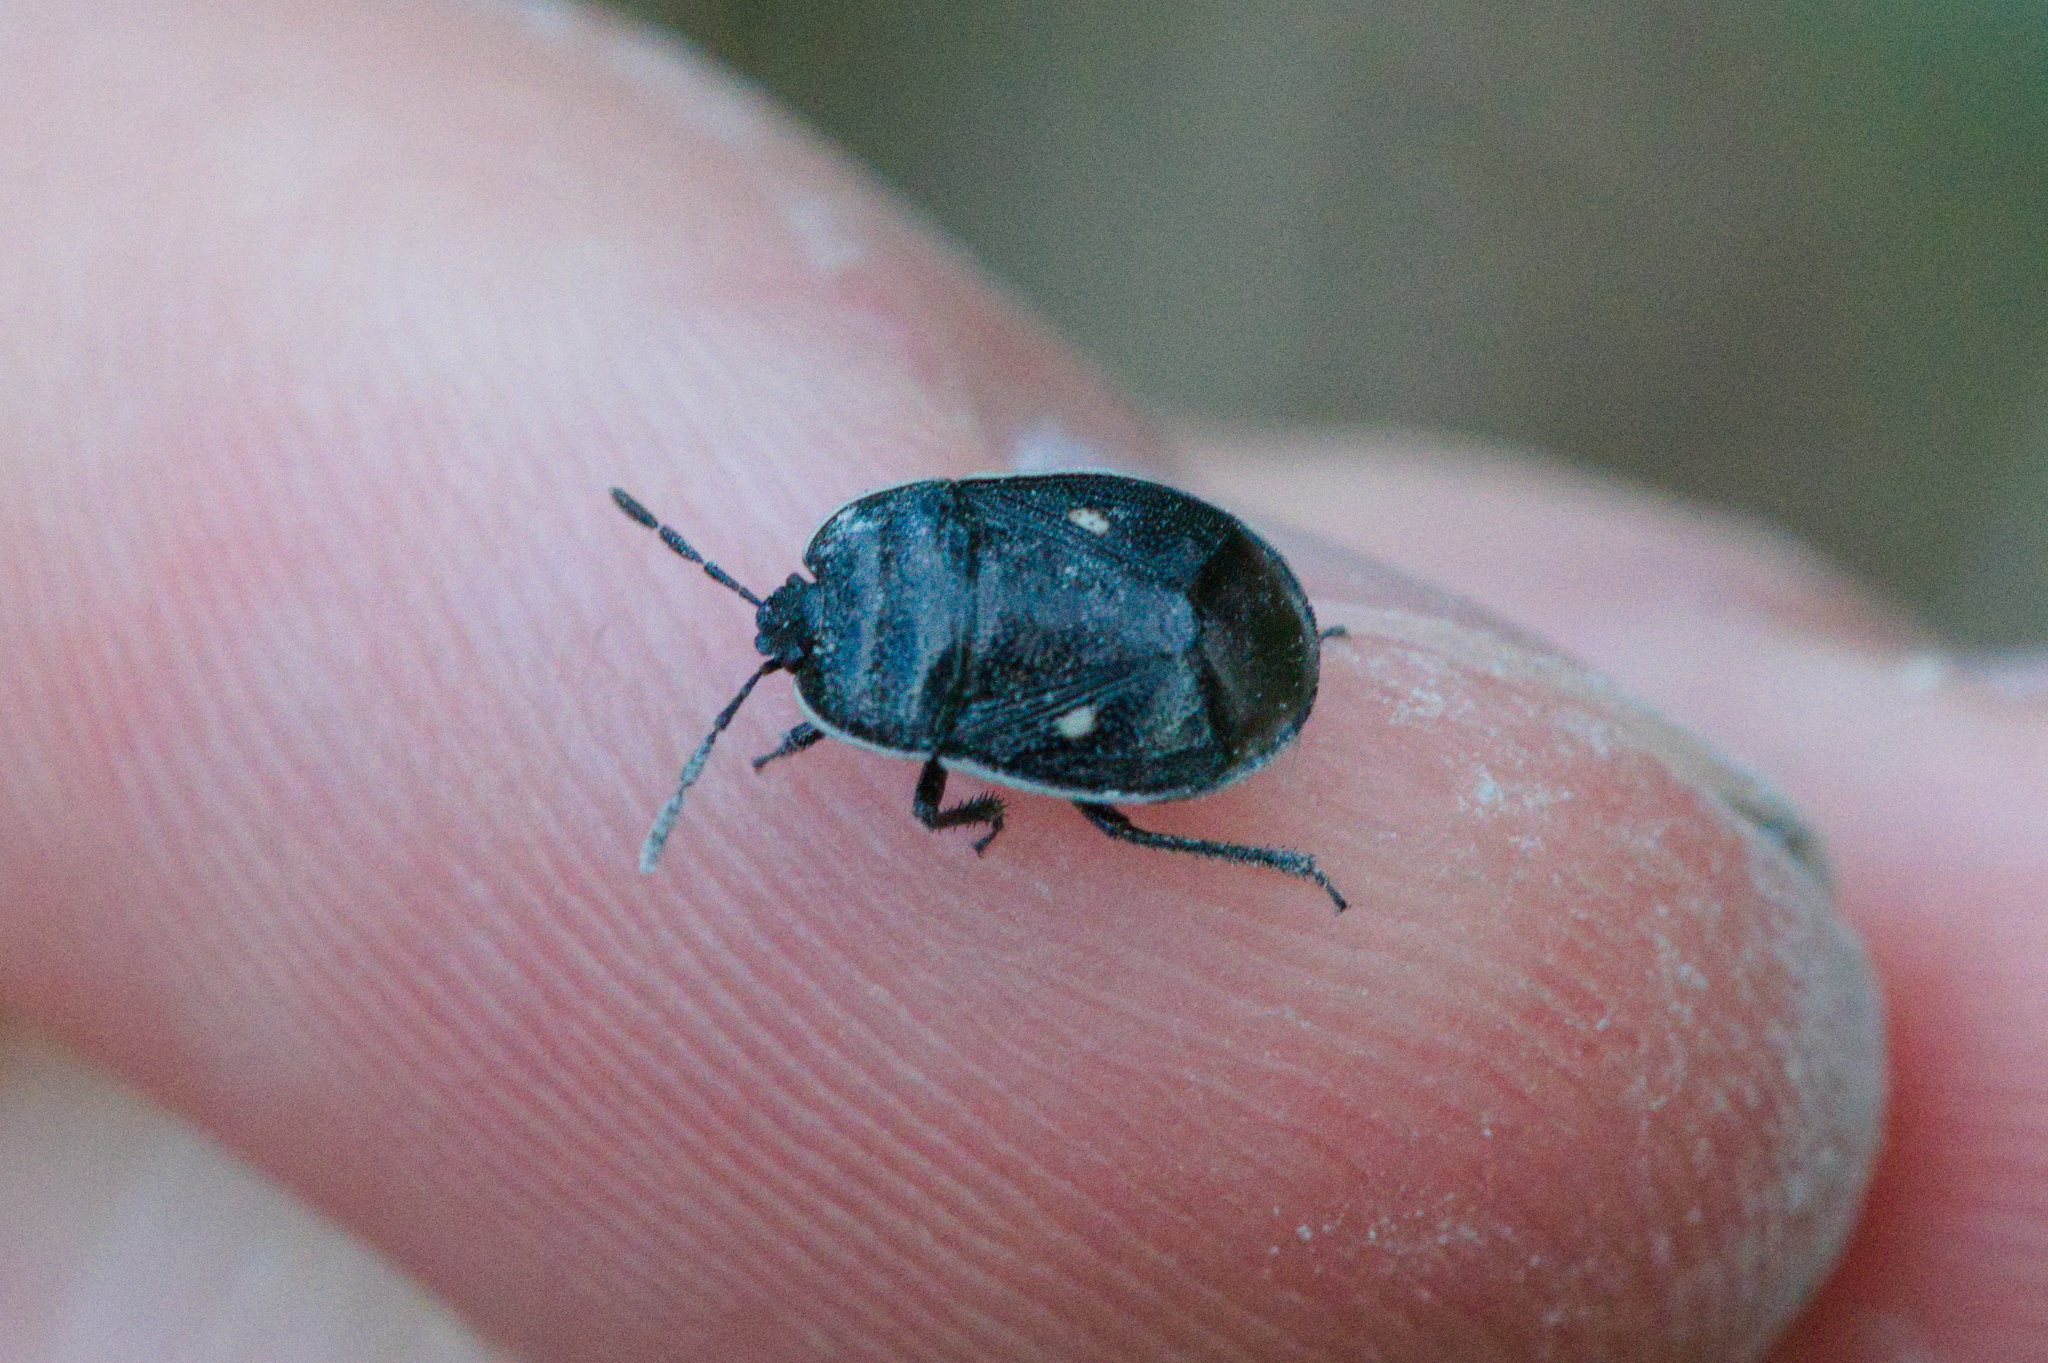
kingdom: Animalia
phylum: Arthropoda
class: Insecta
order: Hemiptera
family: Cydnidae
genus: Adomerus
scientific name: Adomerus biguttatus
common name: Cow wheat shieldbug
